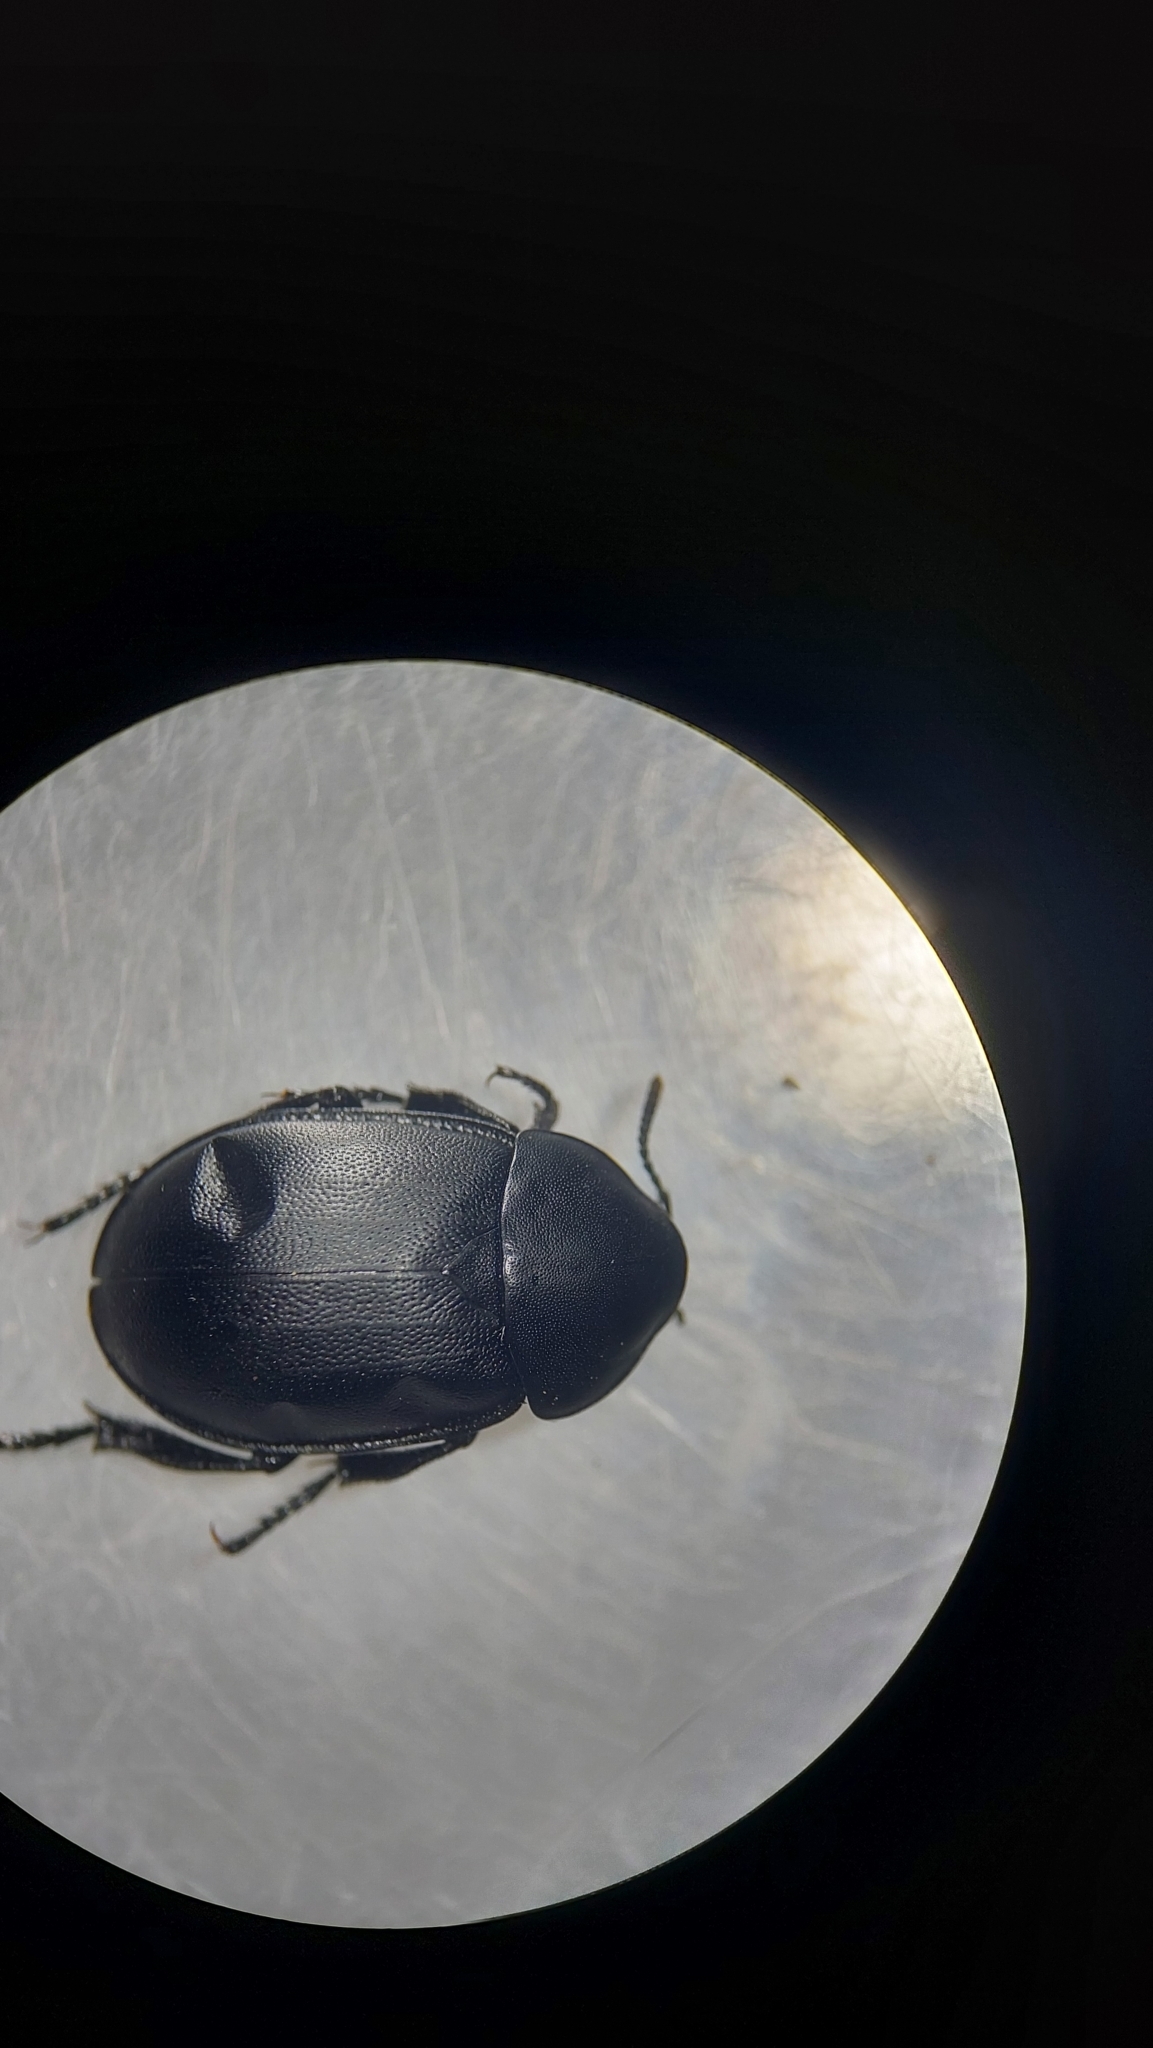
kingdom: Animalia
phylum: Arthropoda
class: Insecta
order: Coleoptera
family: Staphylinidae
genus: Silpha
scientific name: Silpha laevigata
